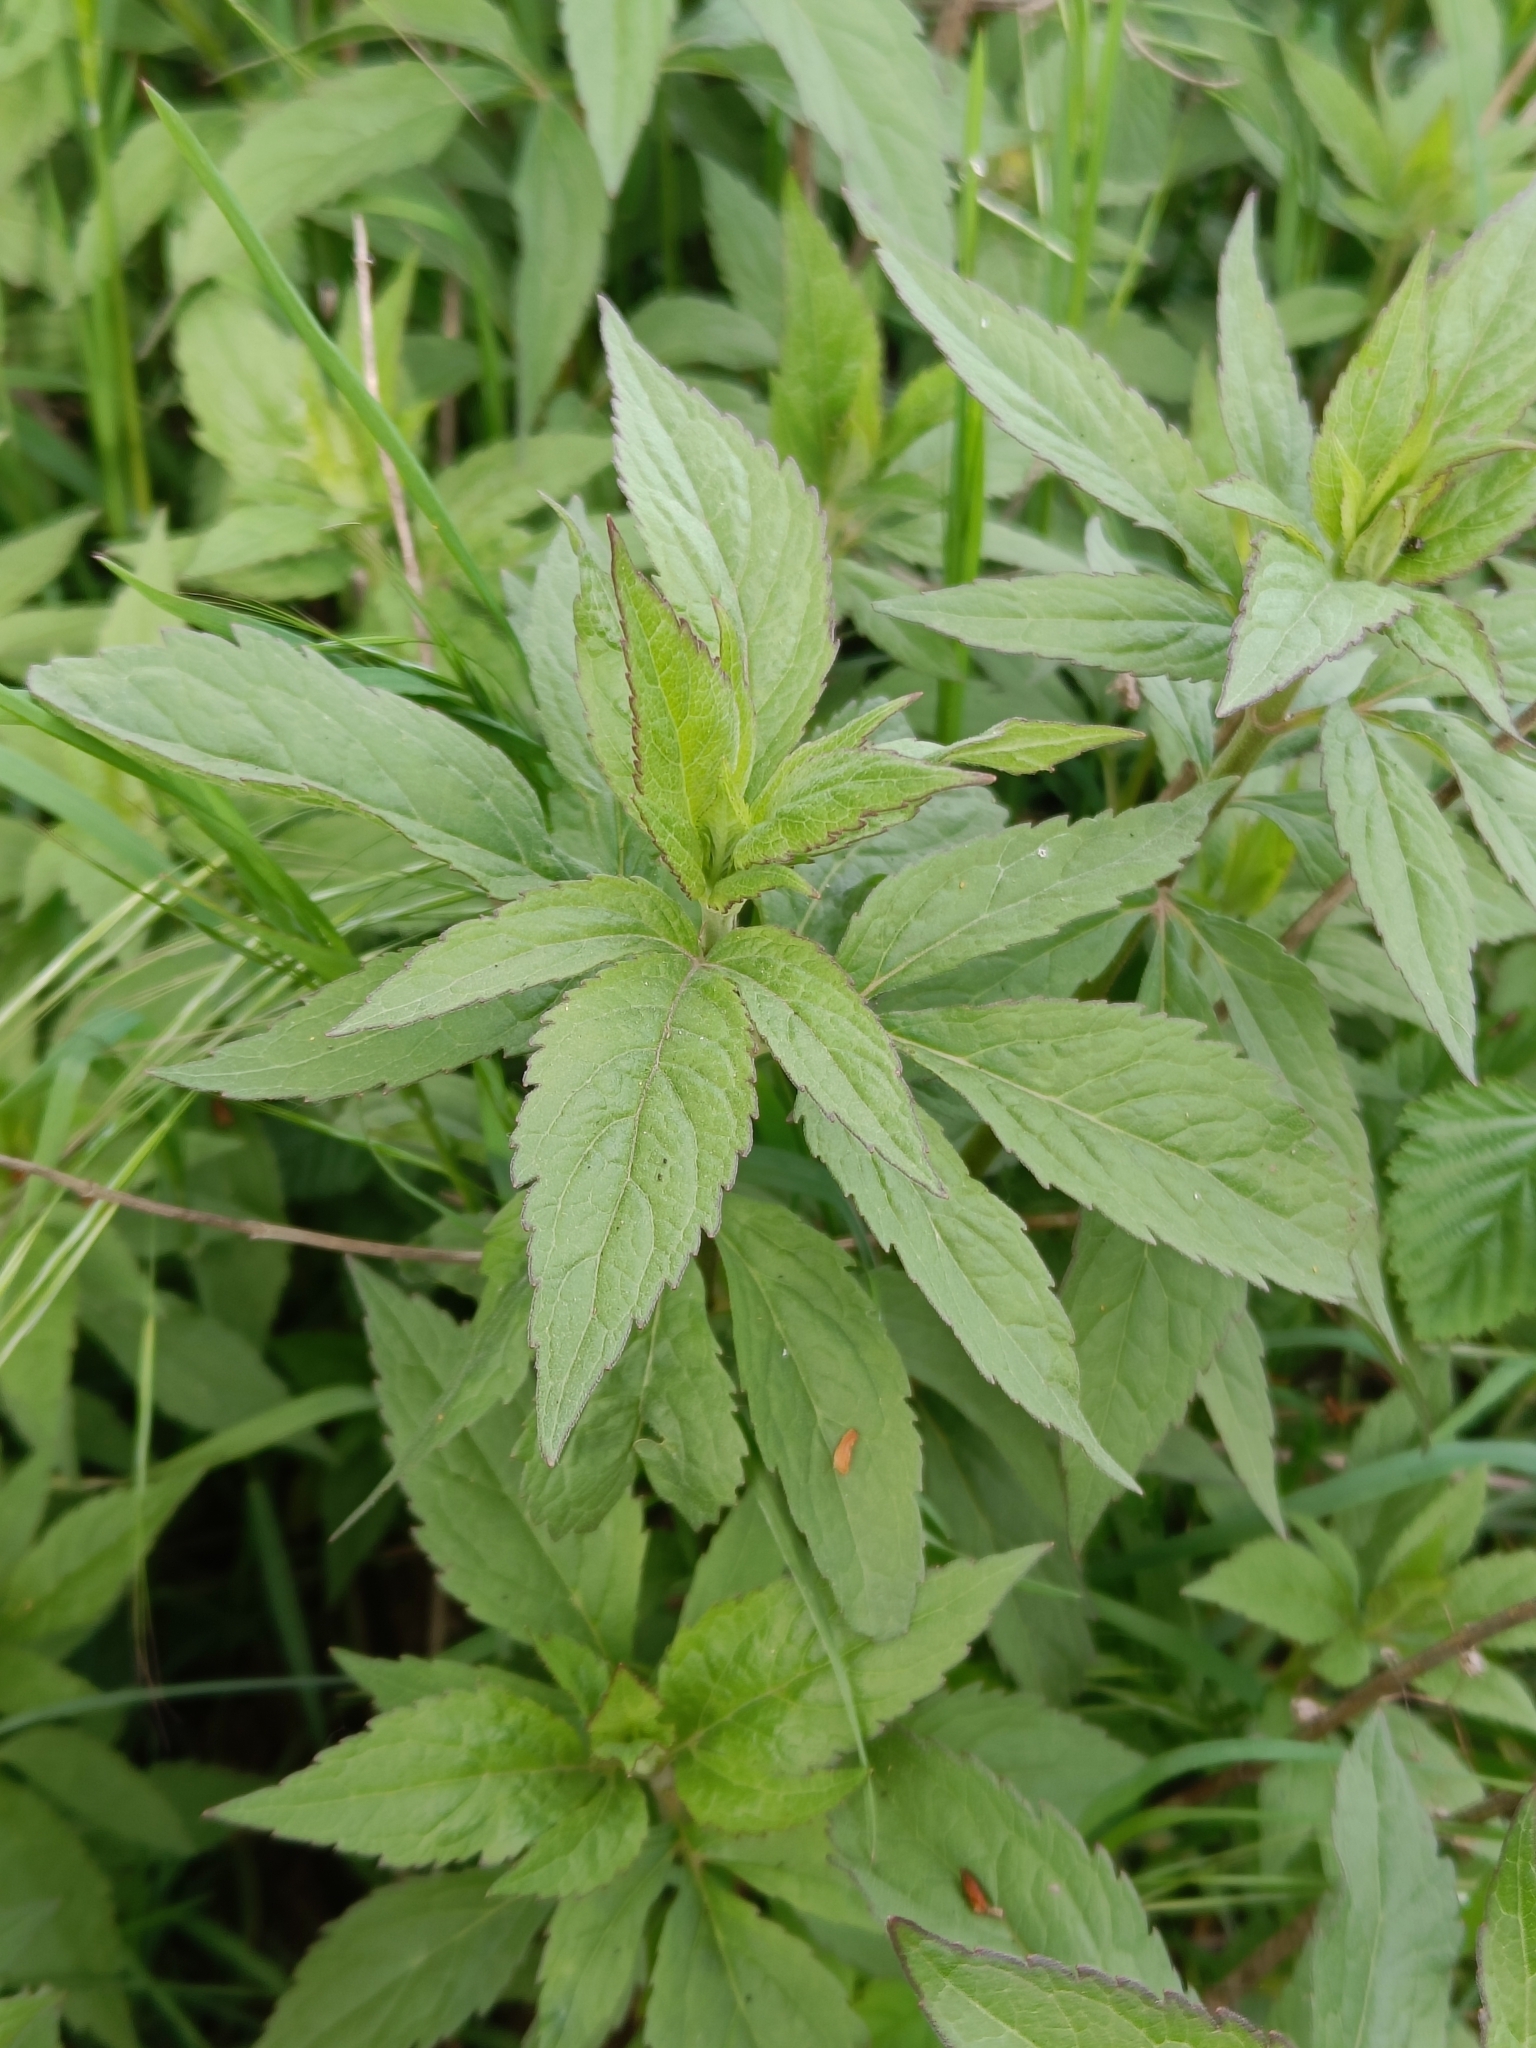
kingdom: Plantae
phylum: Tracheophyta
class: Magnoliopsida
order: Asterales
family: Asteraceae
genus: Eupatorium
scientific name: Eupatorium cannabinum
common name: Hemp-agrimony
